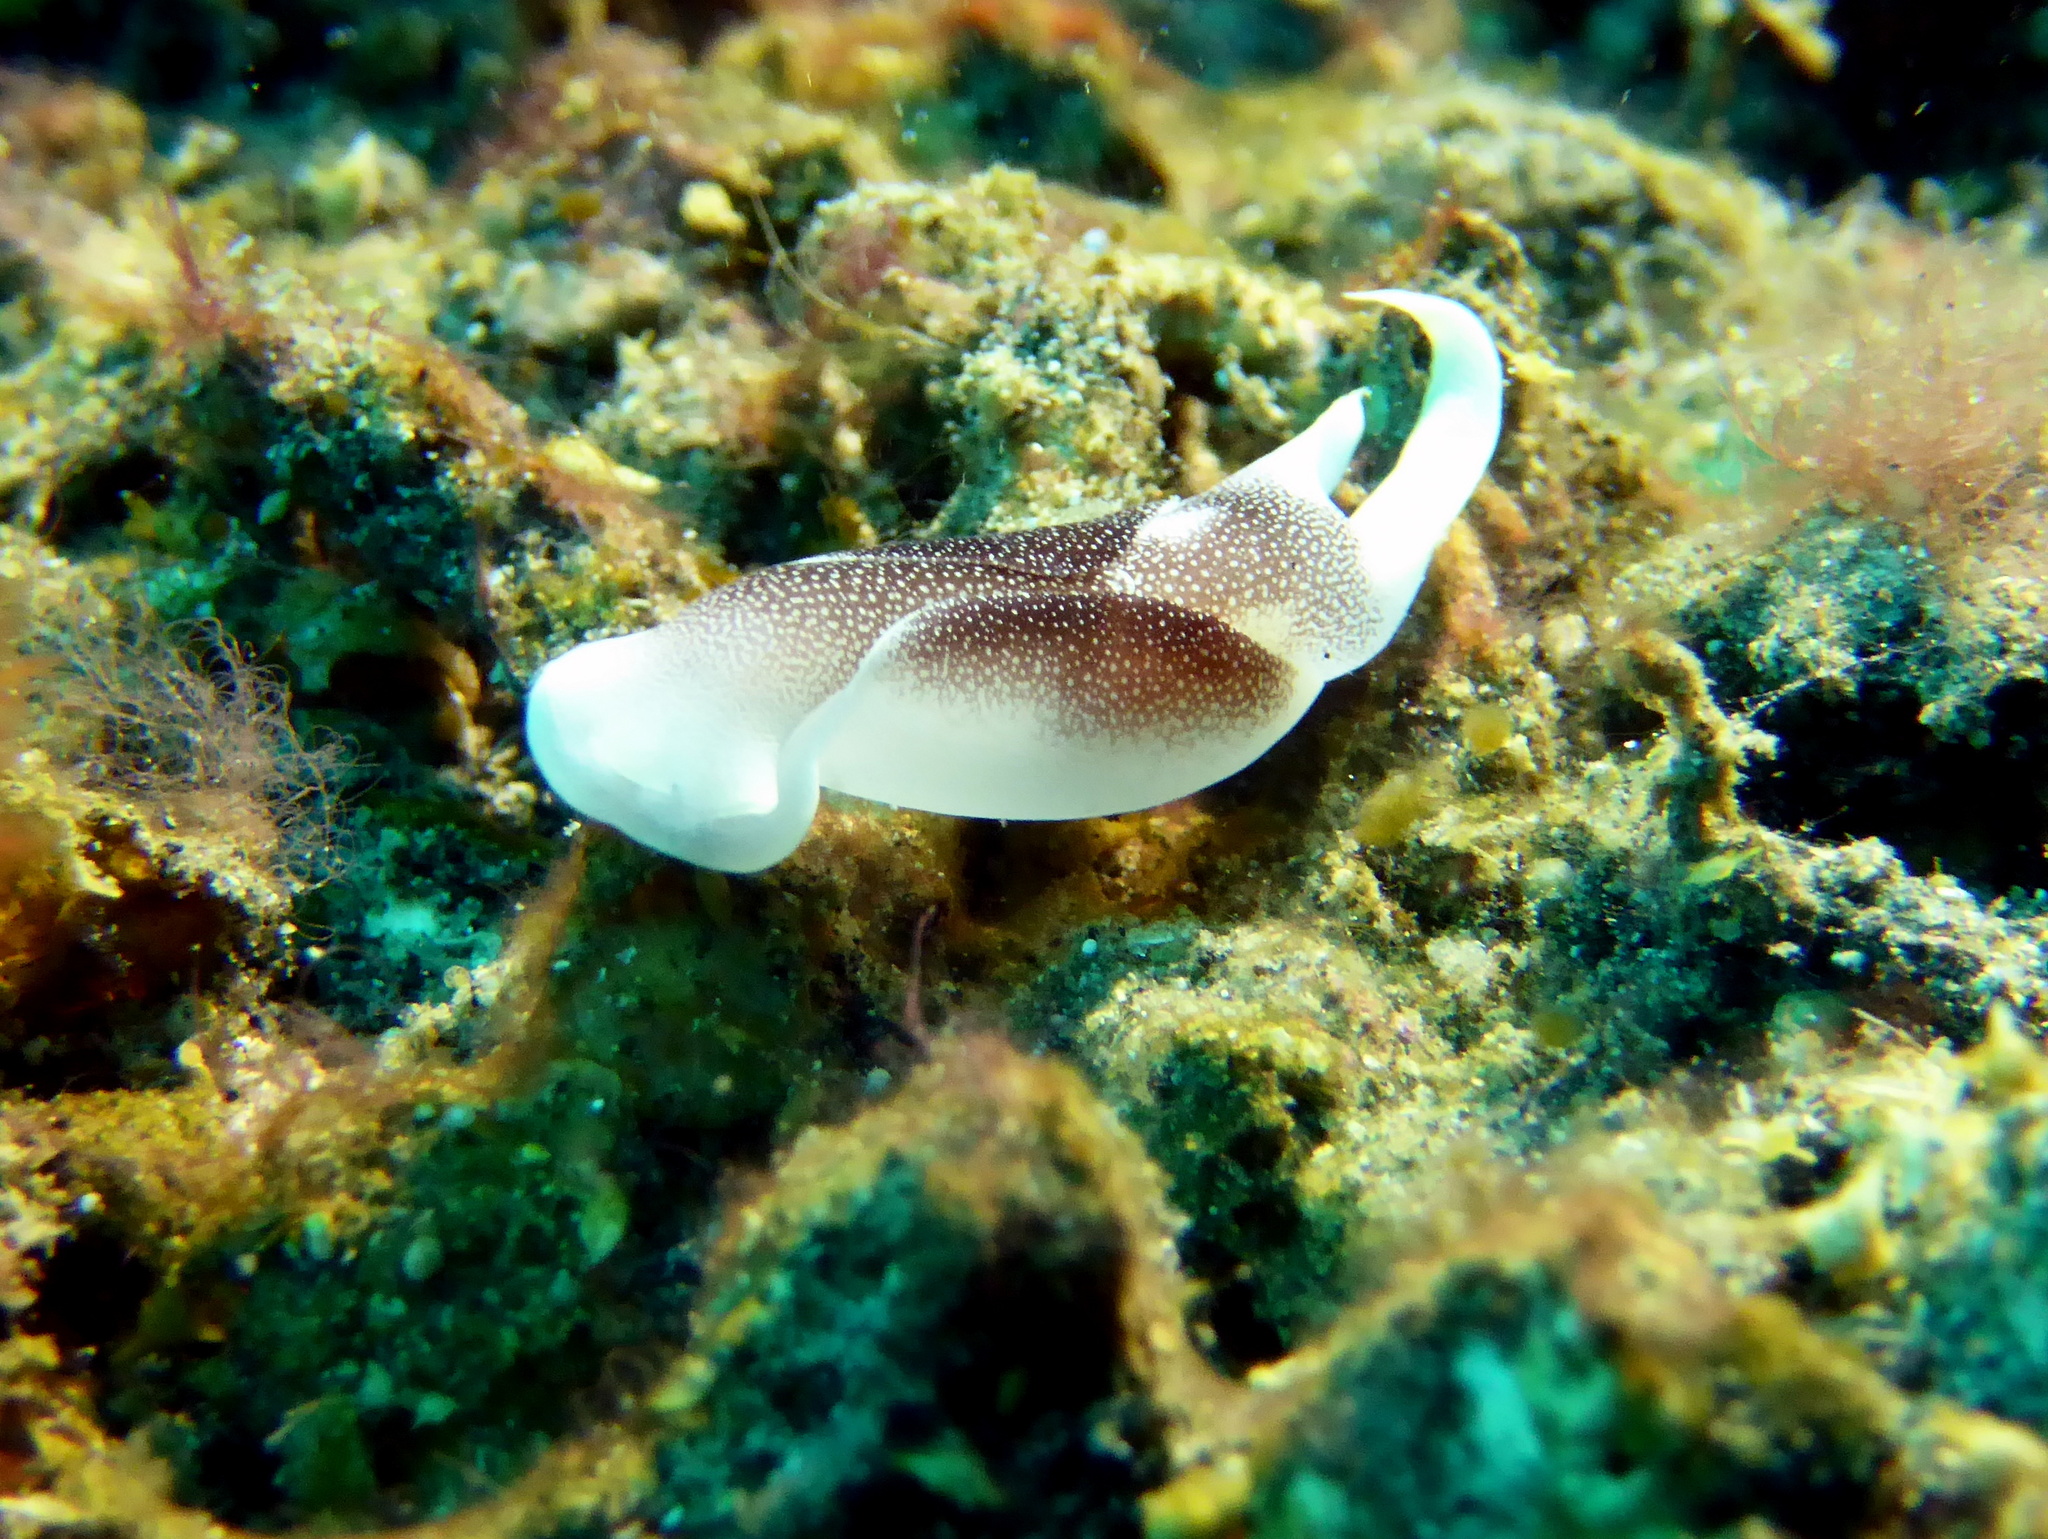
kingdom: Animalia
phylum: Mollusca
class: Gastropoda
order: Cephalaspidea
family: Aglajidae
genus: Chelidonura
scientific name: Chelidonura amoena
